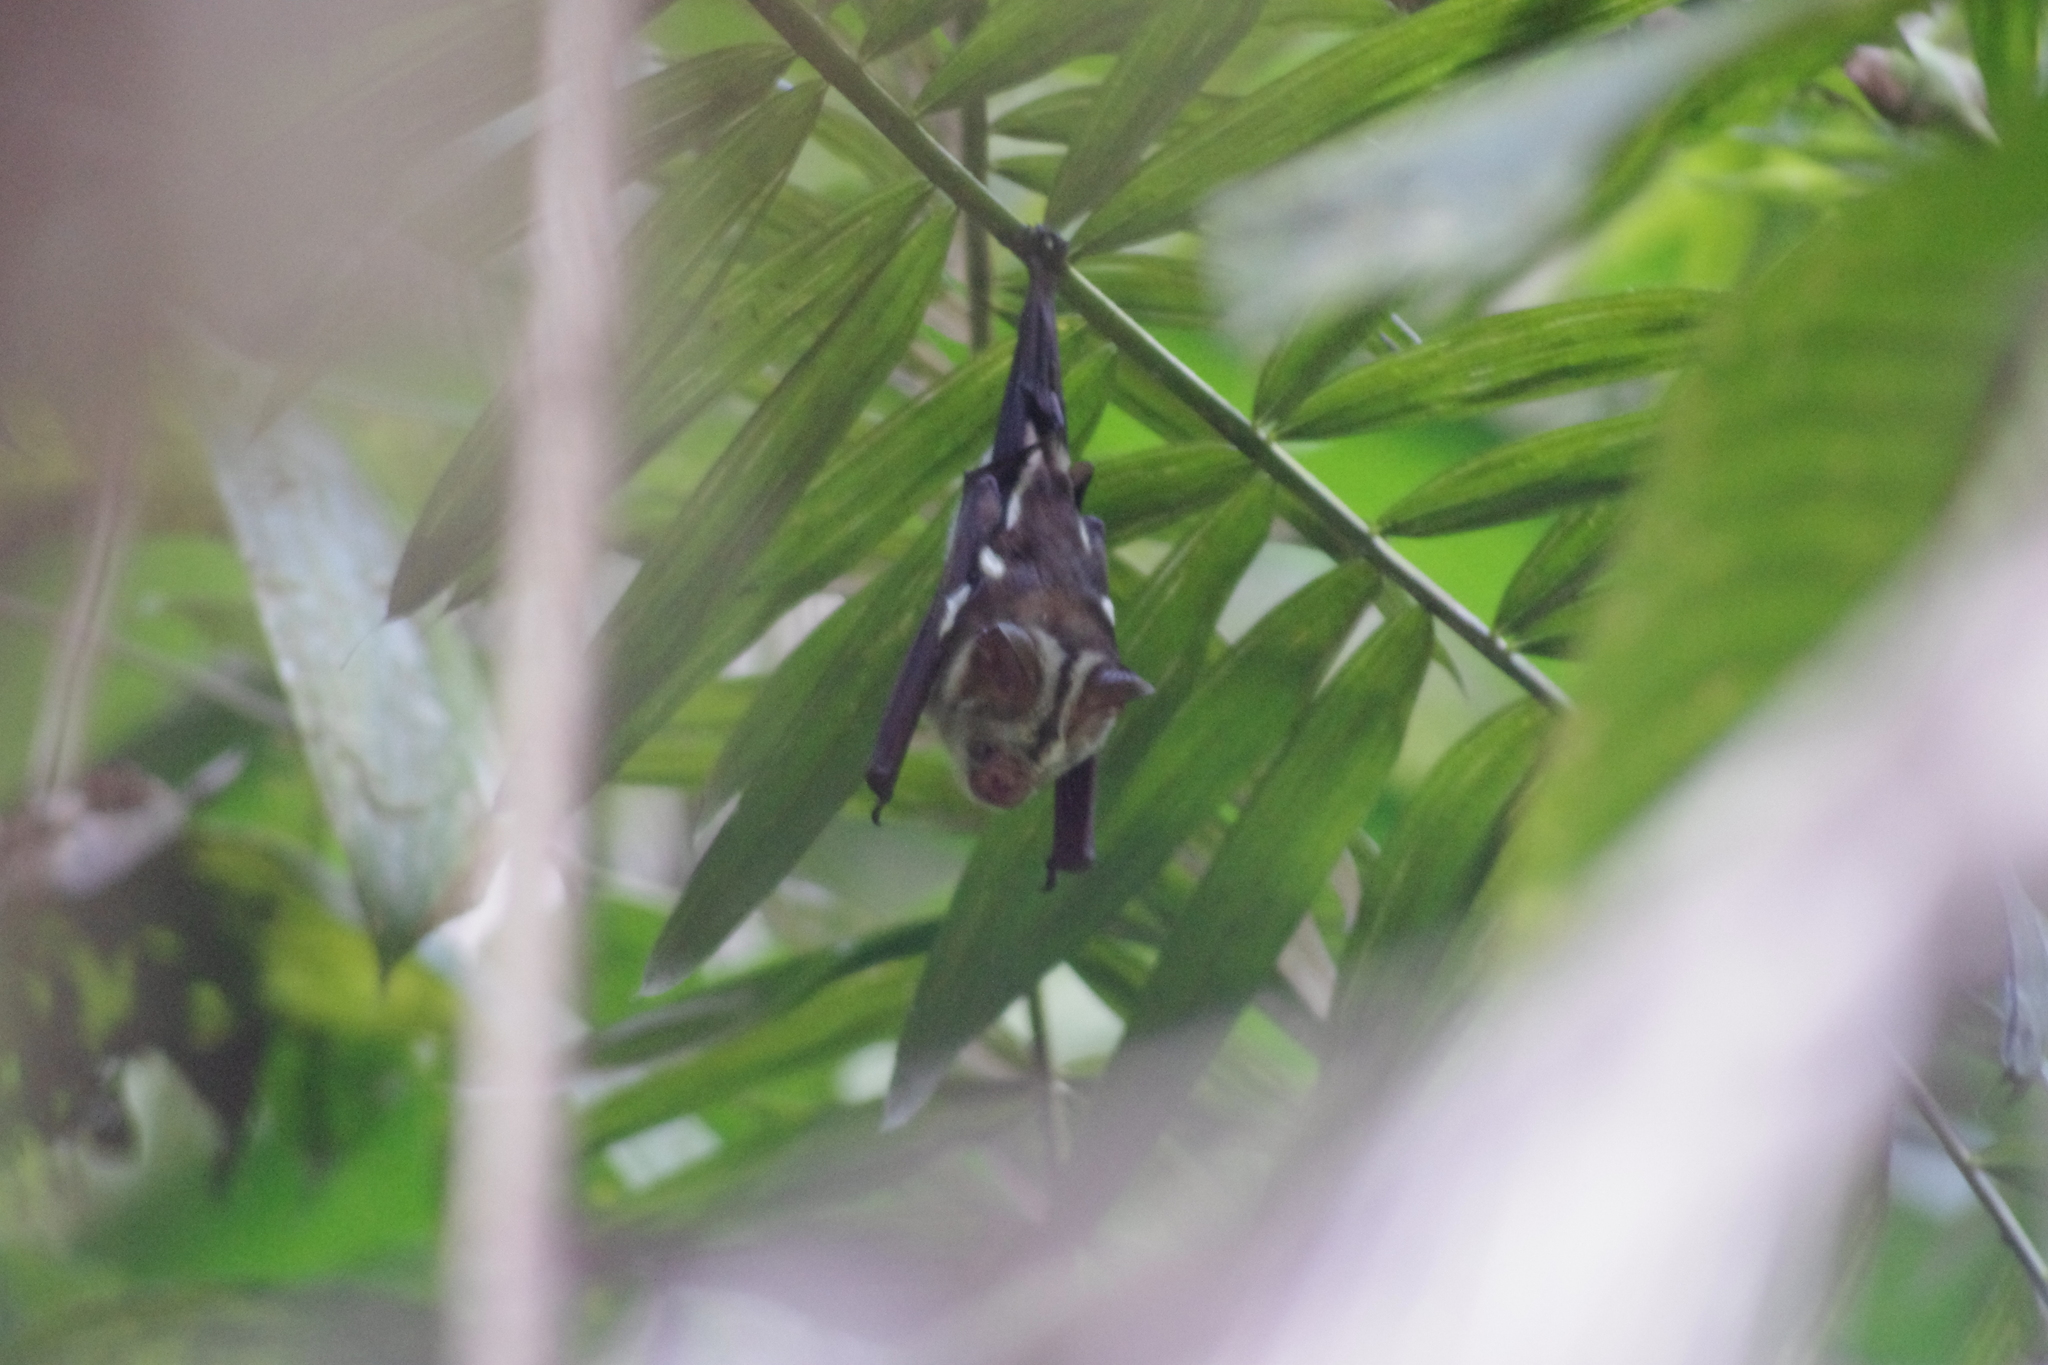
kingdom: Animalia
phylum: Chordata
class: Mammalia
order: Chiroptera
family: Hipposideridae
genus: Hipposideros
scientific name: Hipposideros diadema
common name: Diadem leaf-nosed bat
